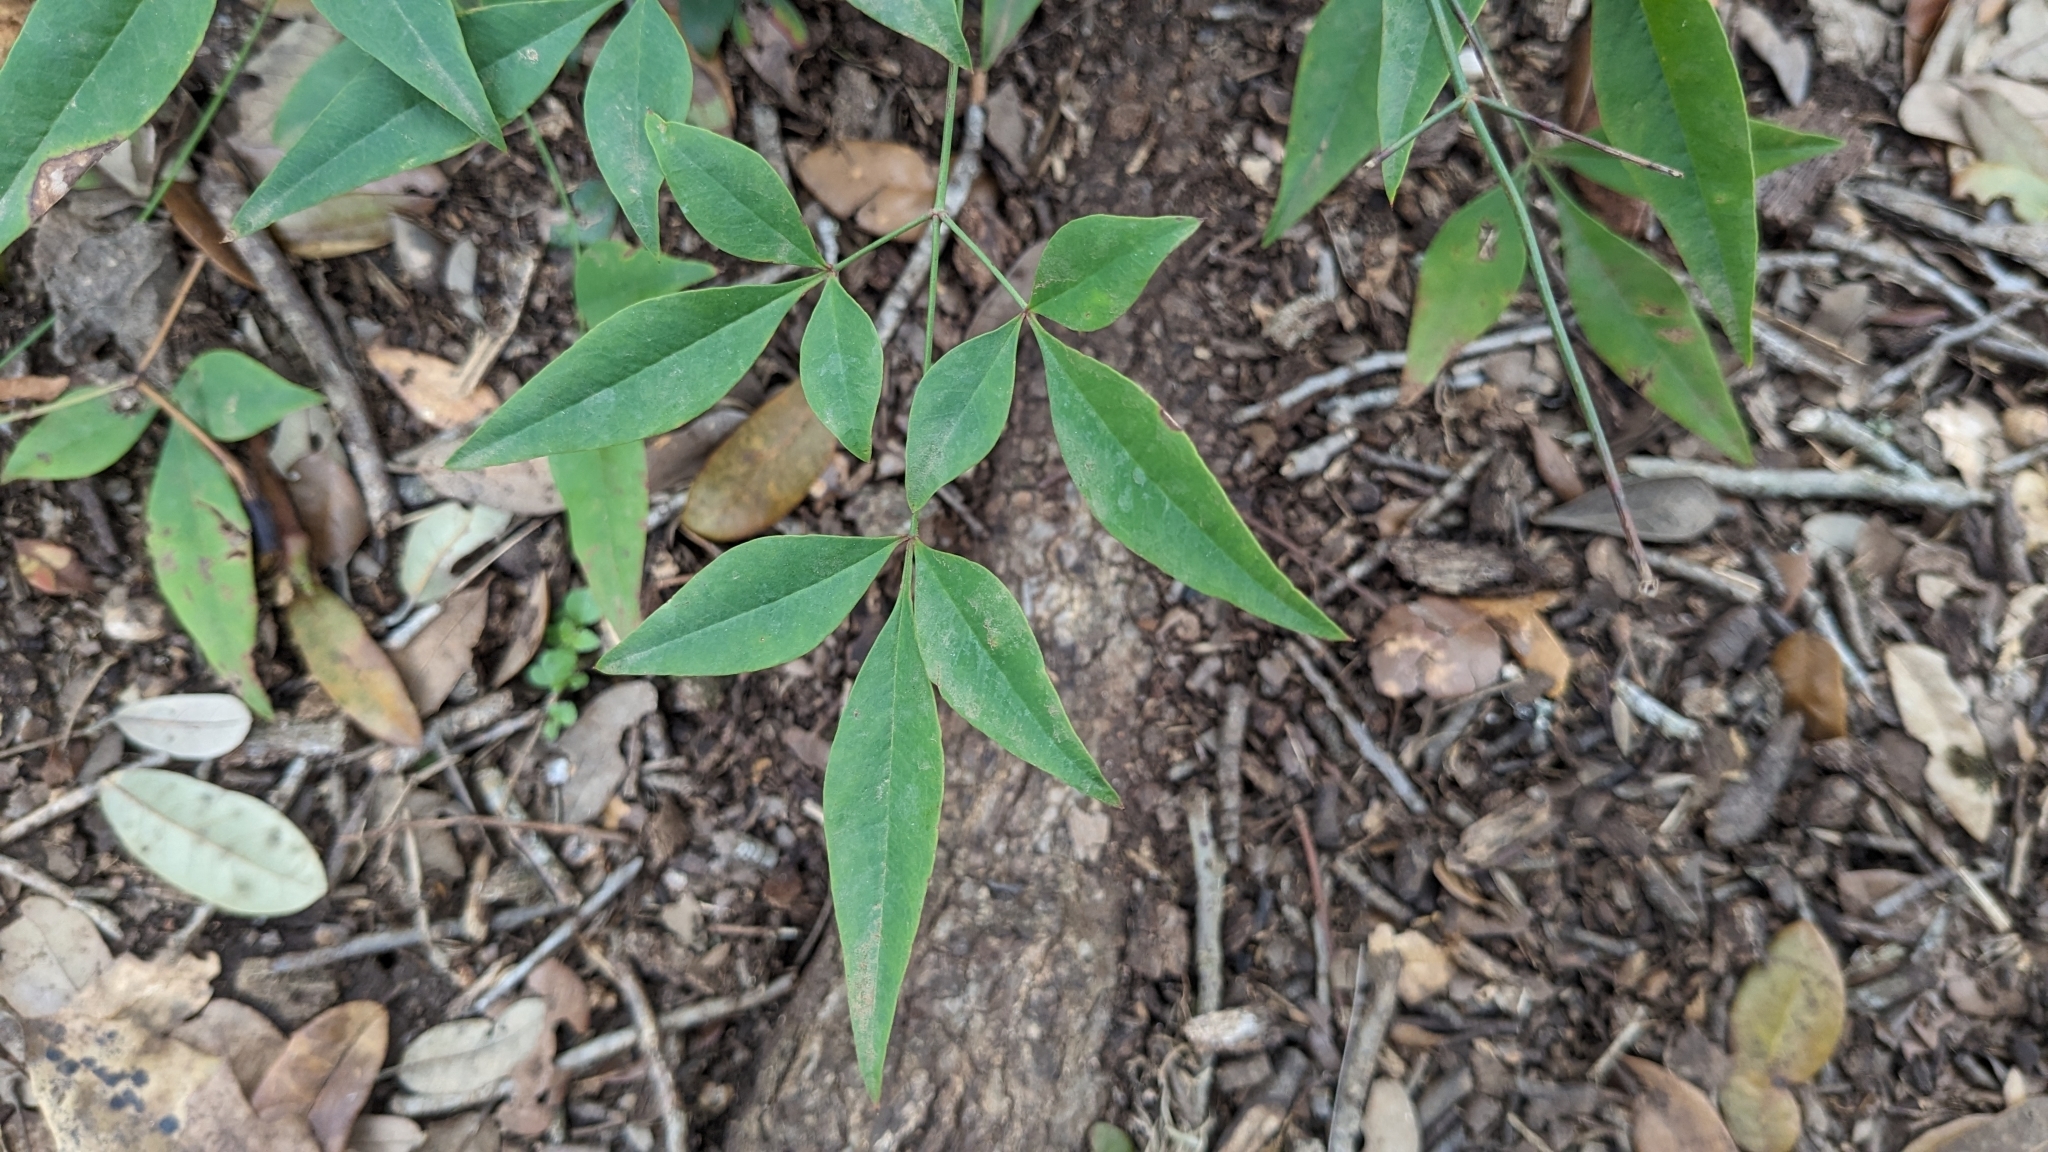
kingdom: Plantae
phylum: Tracheophyta
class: Magnoliopsida
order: Ranunculales
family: Berberidaceae
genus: Nandina
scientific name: Nandina domestica
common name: Sacred bamboo
